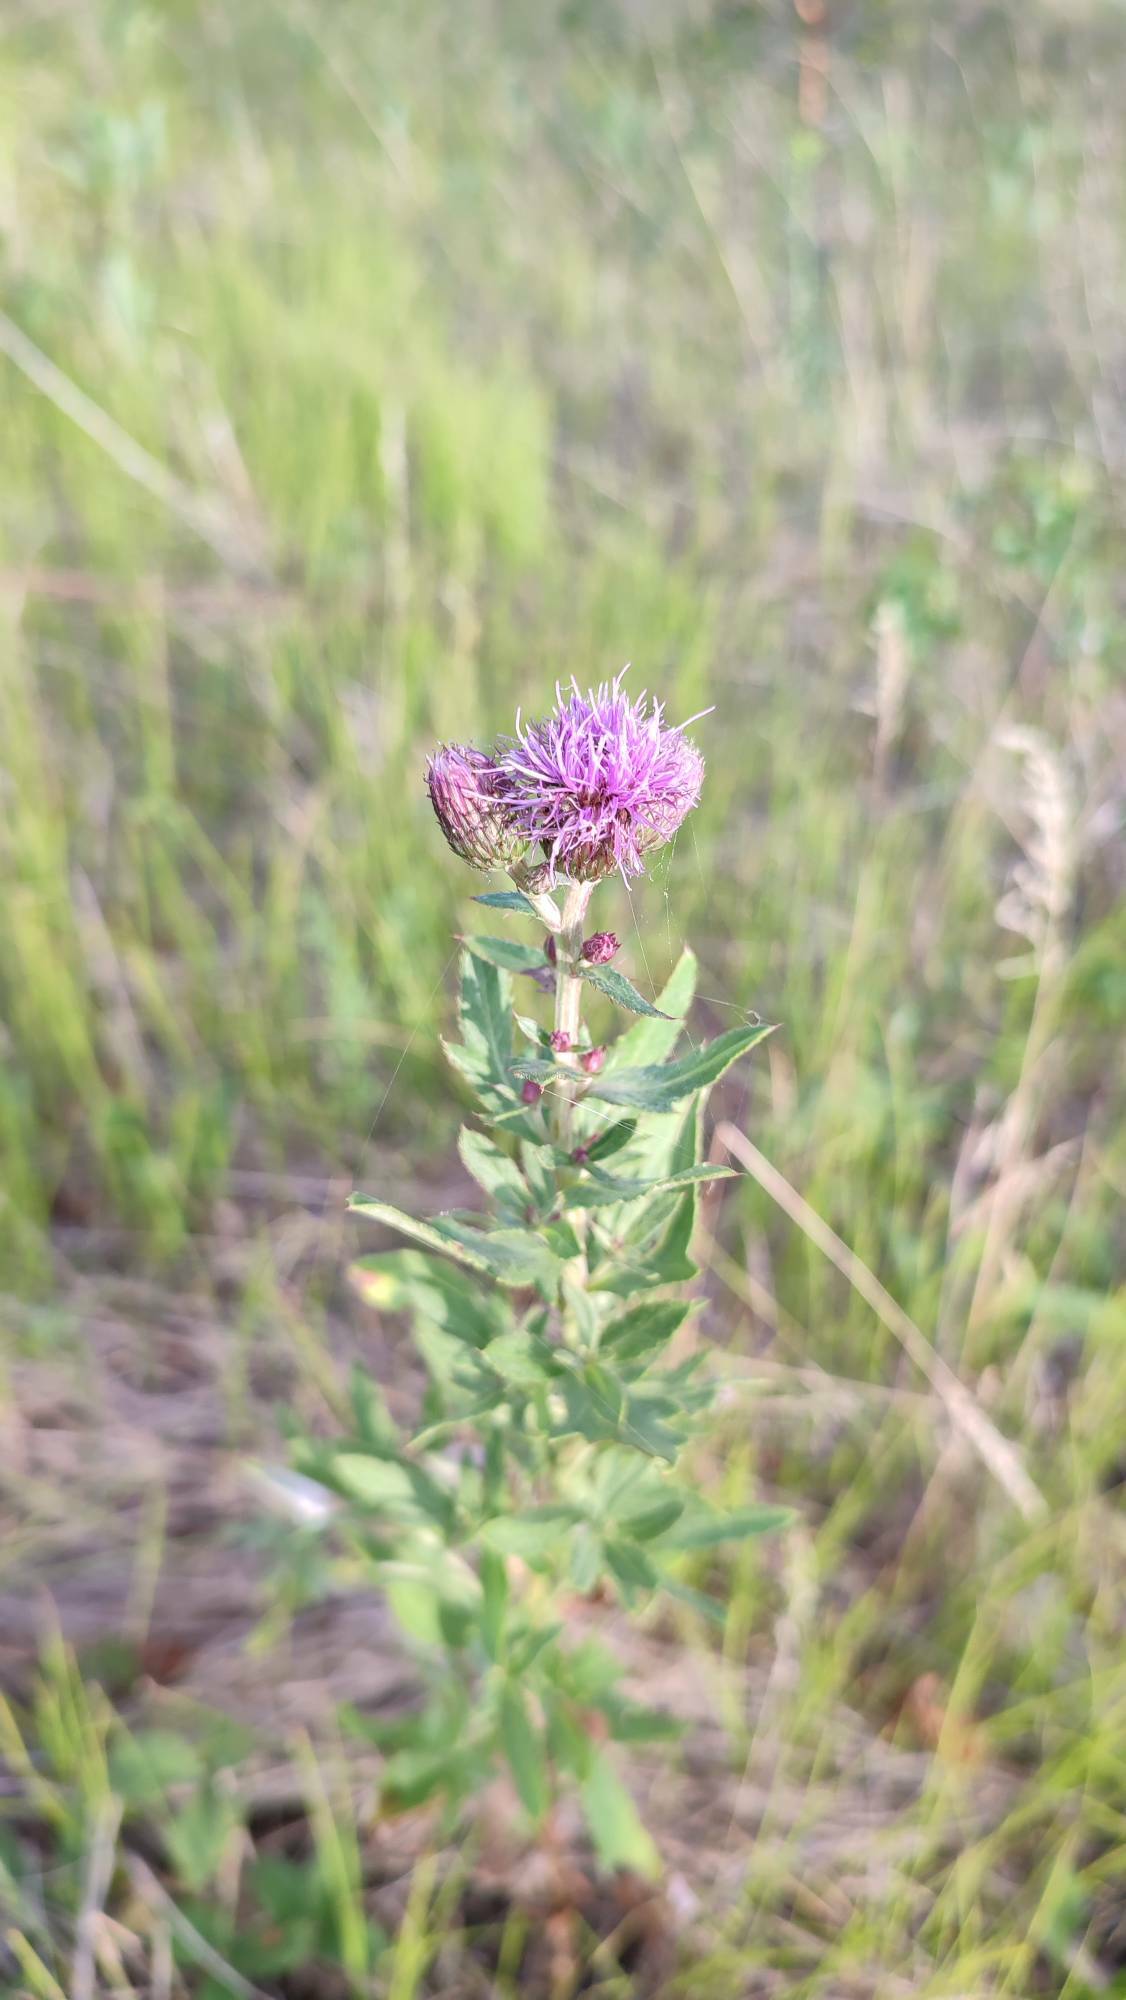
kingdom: Plantae
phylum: Tracheophyta
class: Magnoliopsida
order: Asterales
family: Asteraceae
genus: Cirsium
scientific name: Cirsium arvense
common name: Creeping thistle
